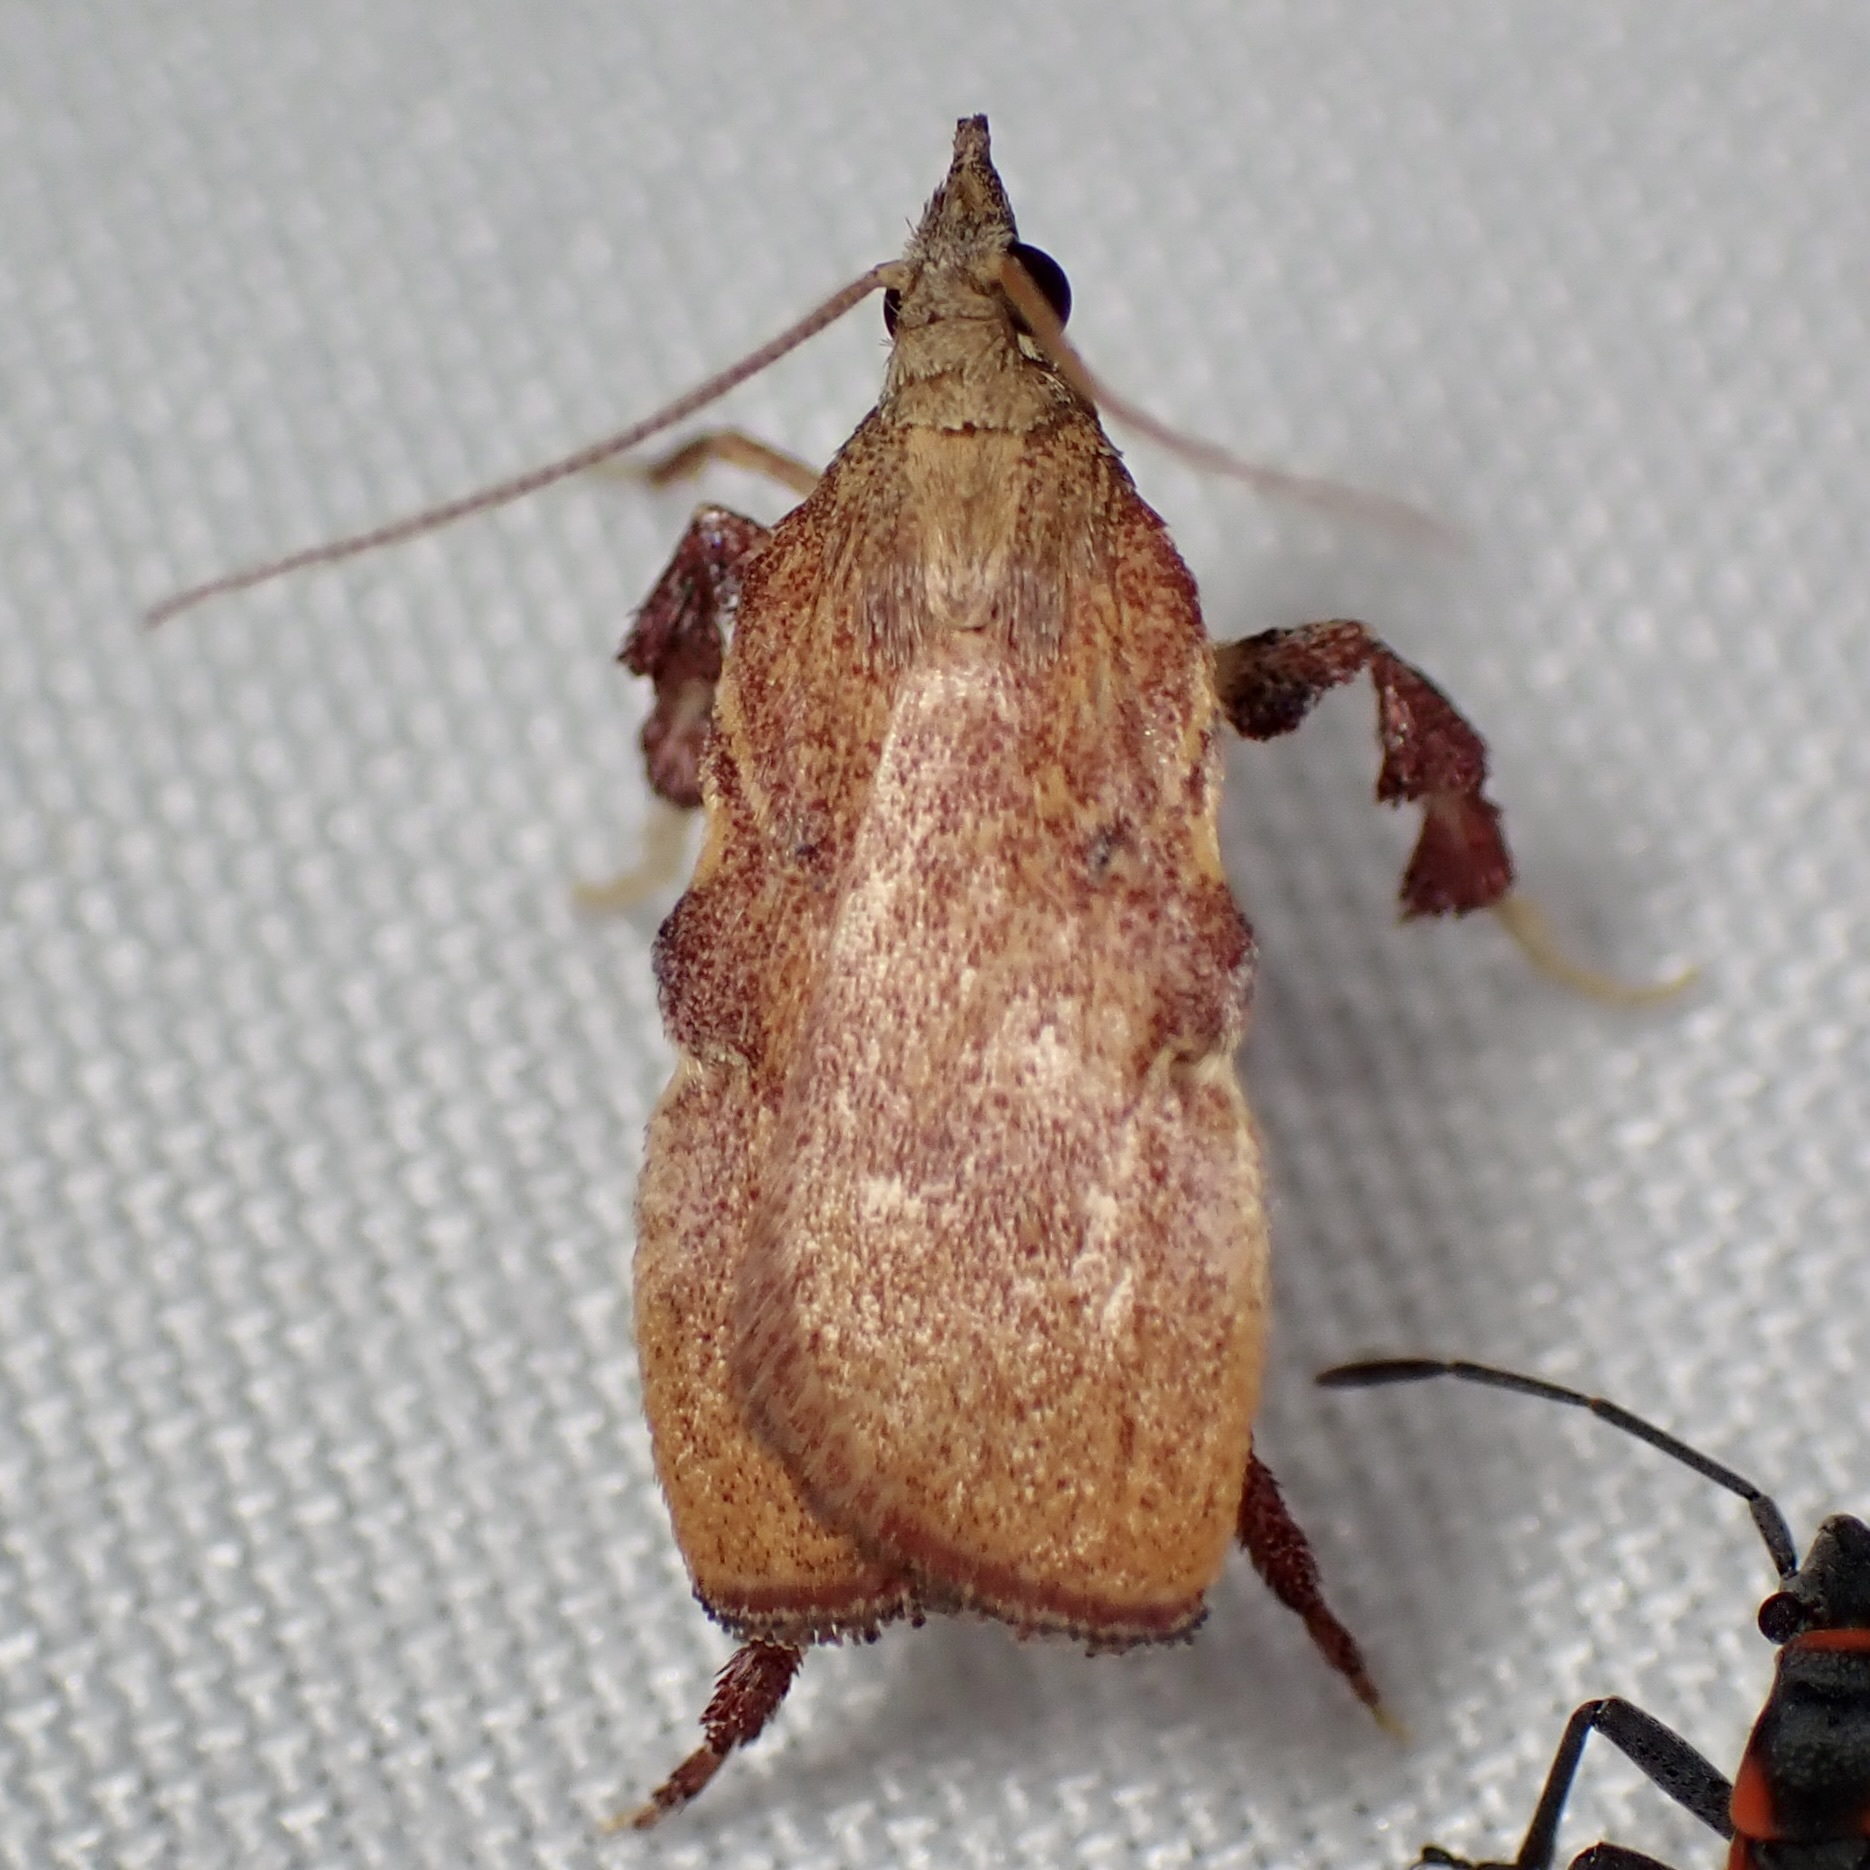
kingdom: Animalia
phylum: Arthropoda
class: Insecta
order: Lepidoptera
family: Pyralidae
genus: Galasa
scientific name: Galasa nigripunctalis
